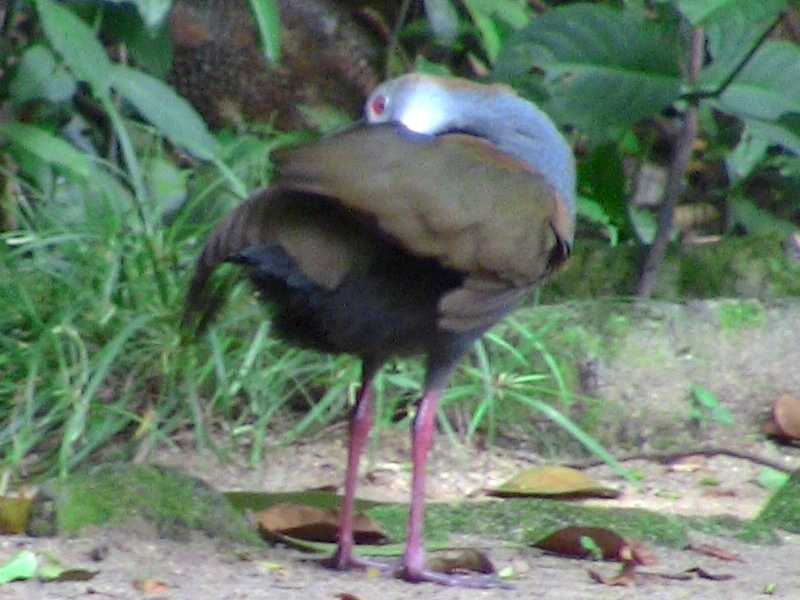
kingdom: Animalia
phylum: Chordata
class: Aves
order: Gruiformes
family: Rallidae
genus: Aramides
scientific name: Aramides saracura
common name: Slaty-breasted wood rail
